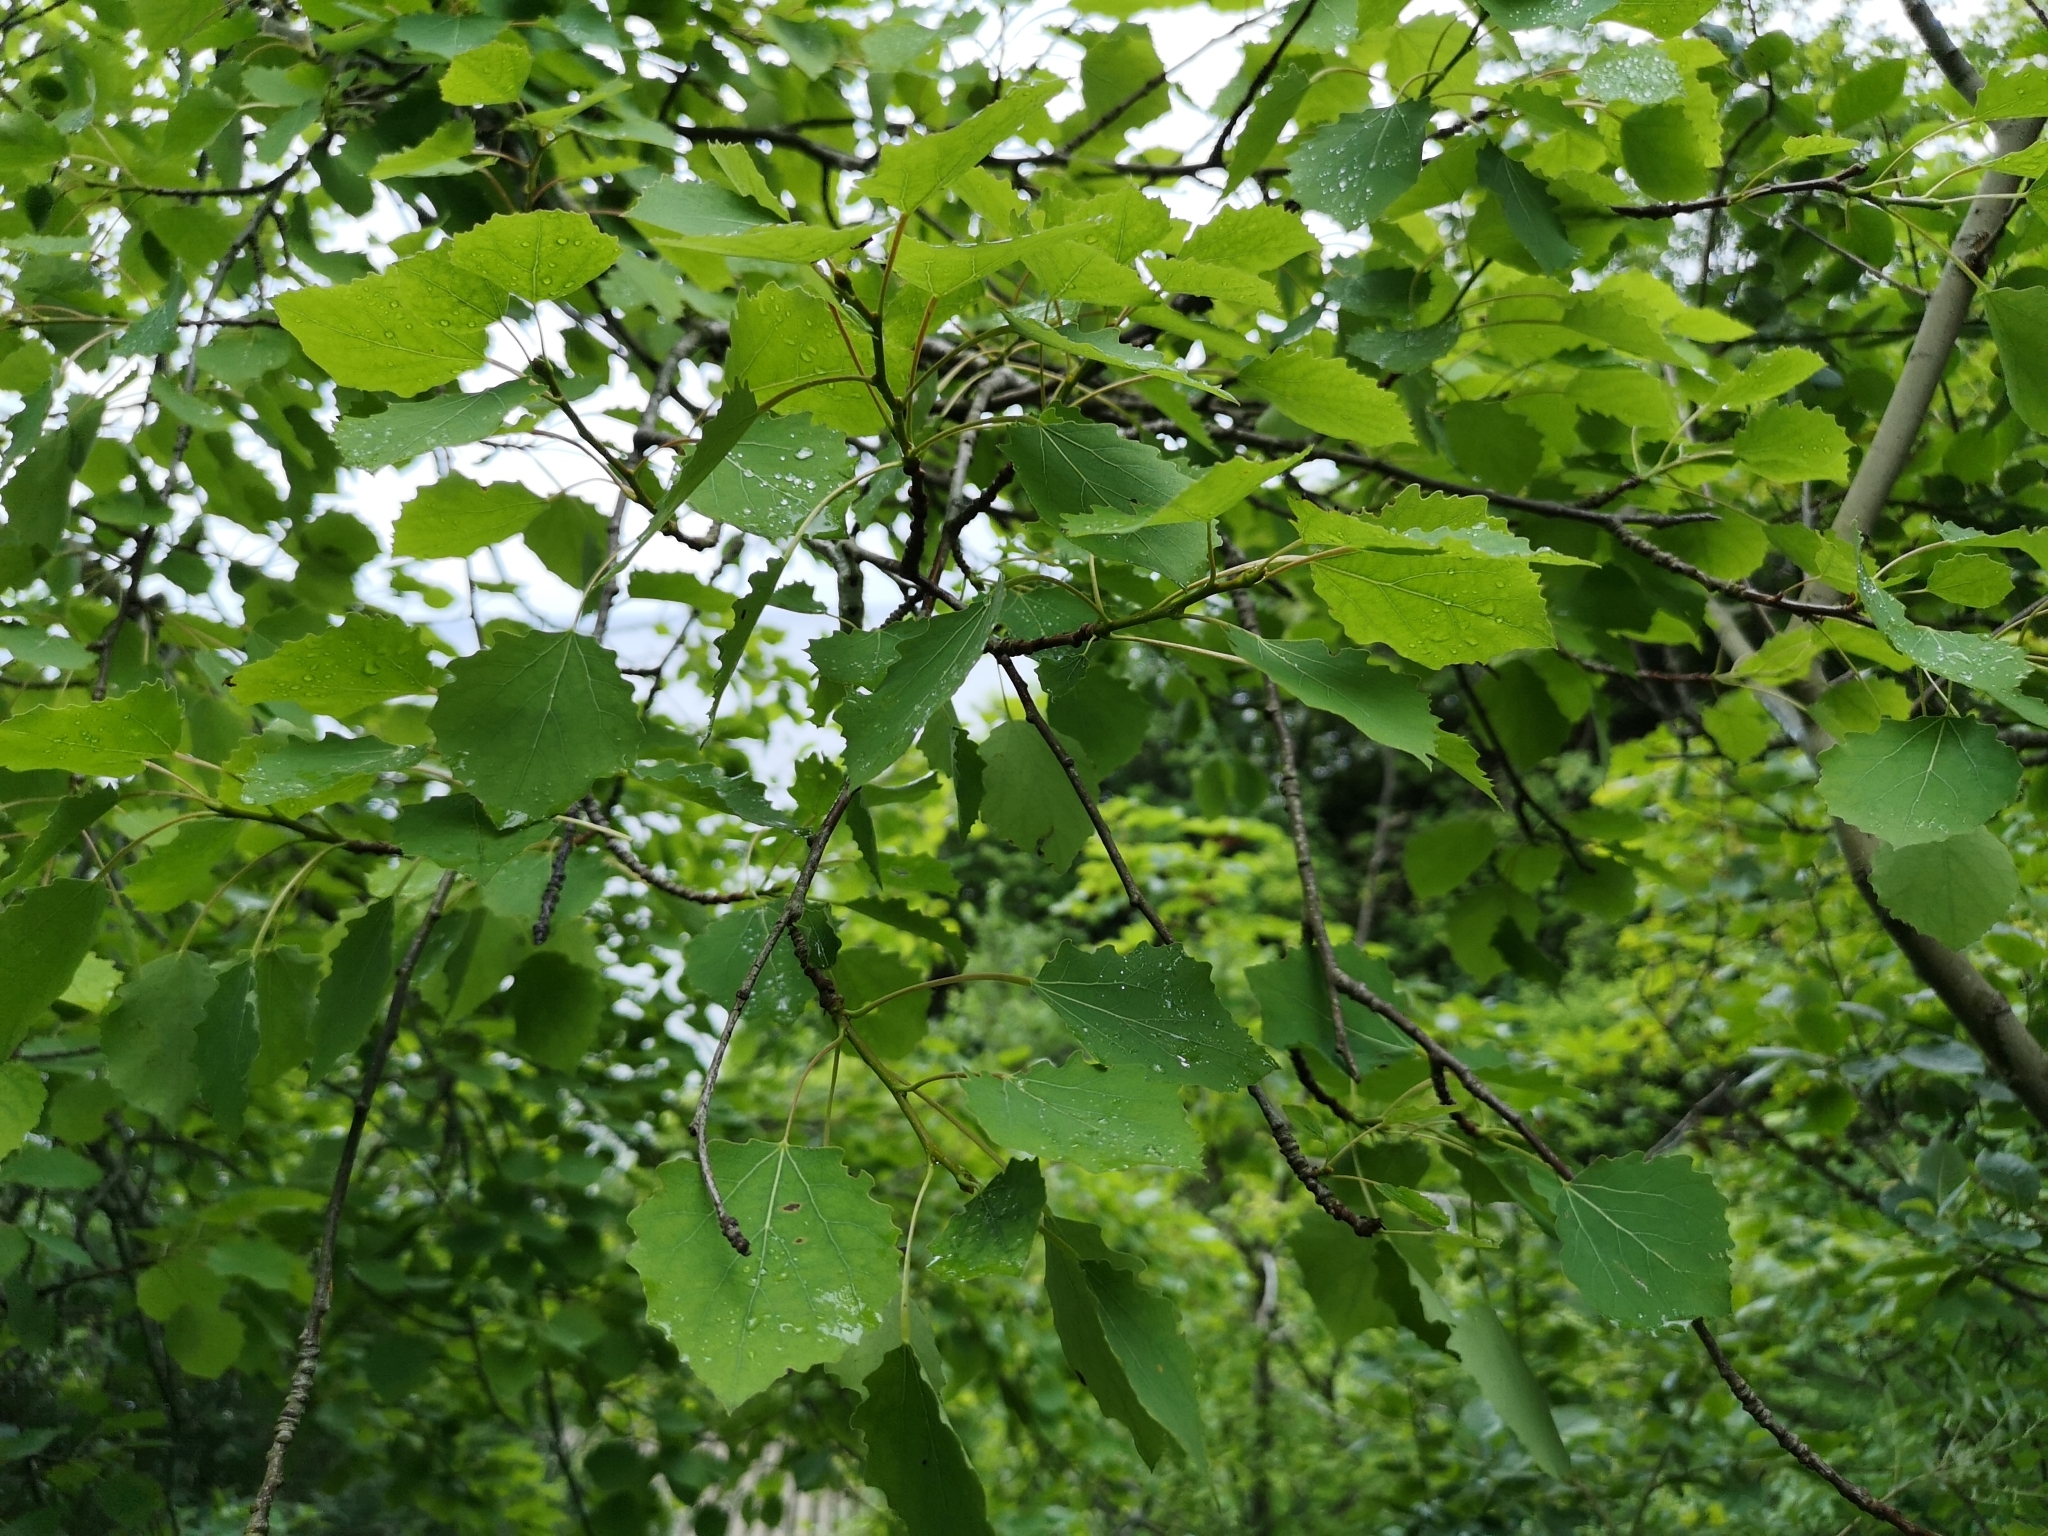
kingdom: Plantae
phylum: Tracheophyta
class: Magnoliopsida
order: Malpighiales
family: Salicaceae
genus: Populus
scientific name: Populus tremula
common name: European aspen
